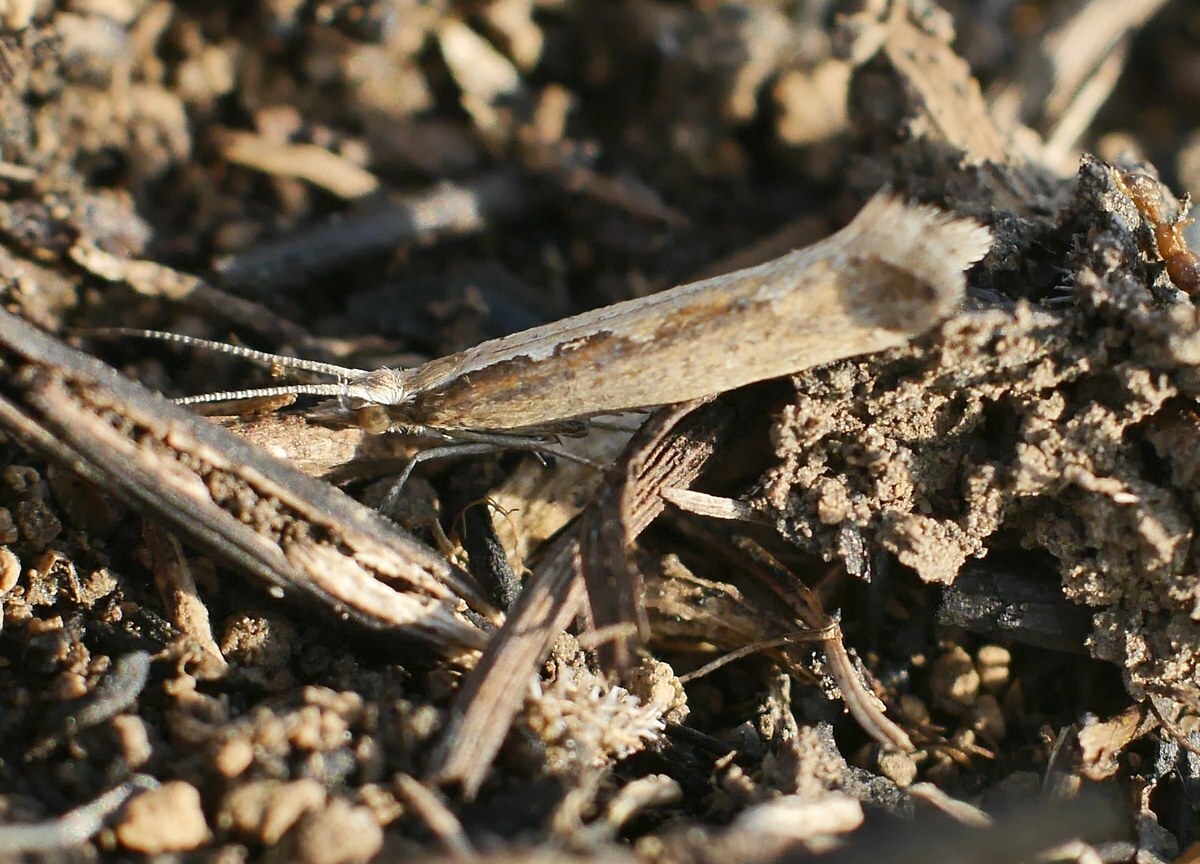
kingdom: Animalia
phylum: Arthropoda
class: Insecta
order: Lepidoptera
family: Plutellidae
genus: Plutella
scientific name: Plutella xylostella
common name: Diamond-back moth
